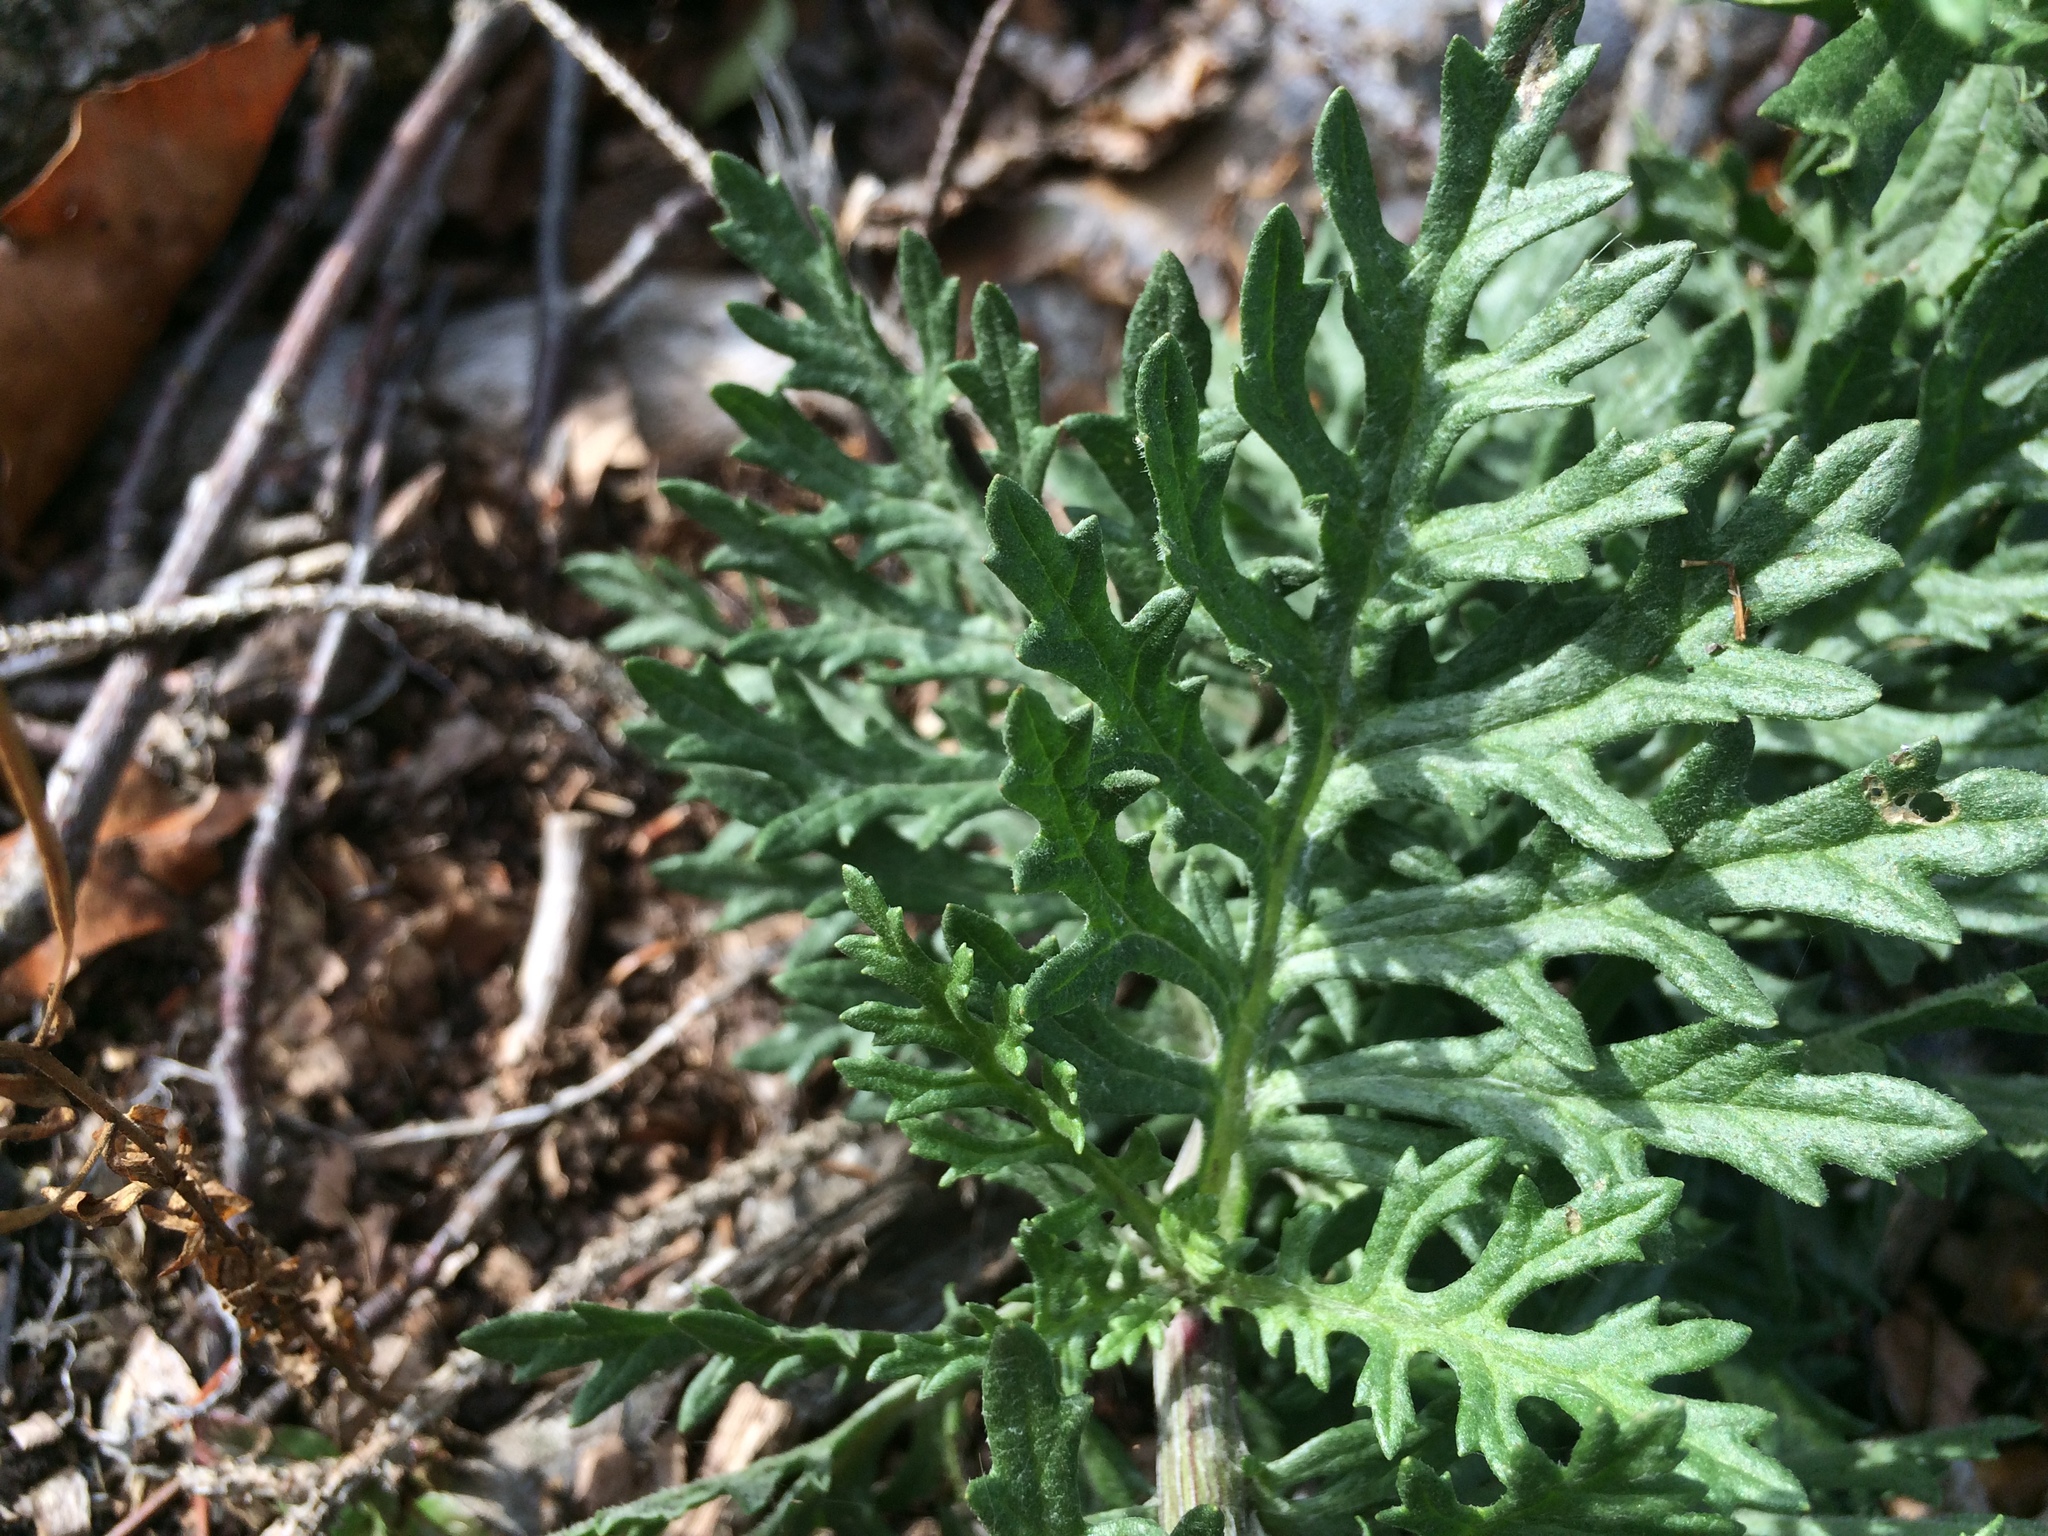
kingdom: Plantae
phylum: Tracheophyta
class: Magnoliopsida
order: Asterales
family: Asteraceae
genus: Jacobaea
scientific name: Jacobaea vulgaris
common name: Stinking willie
